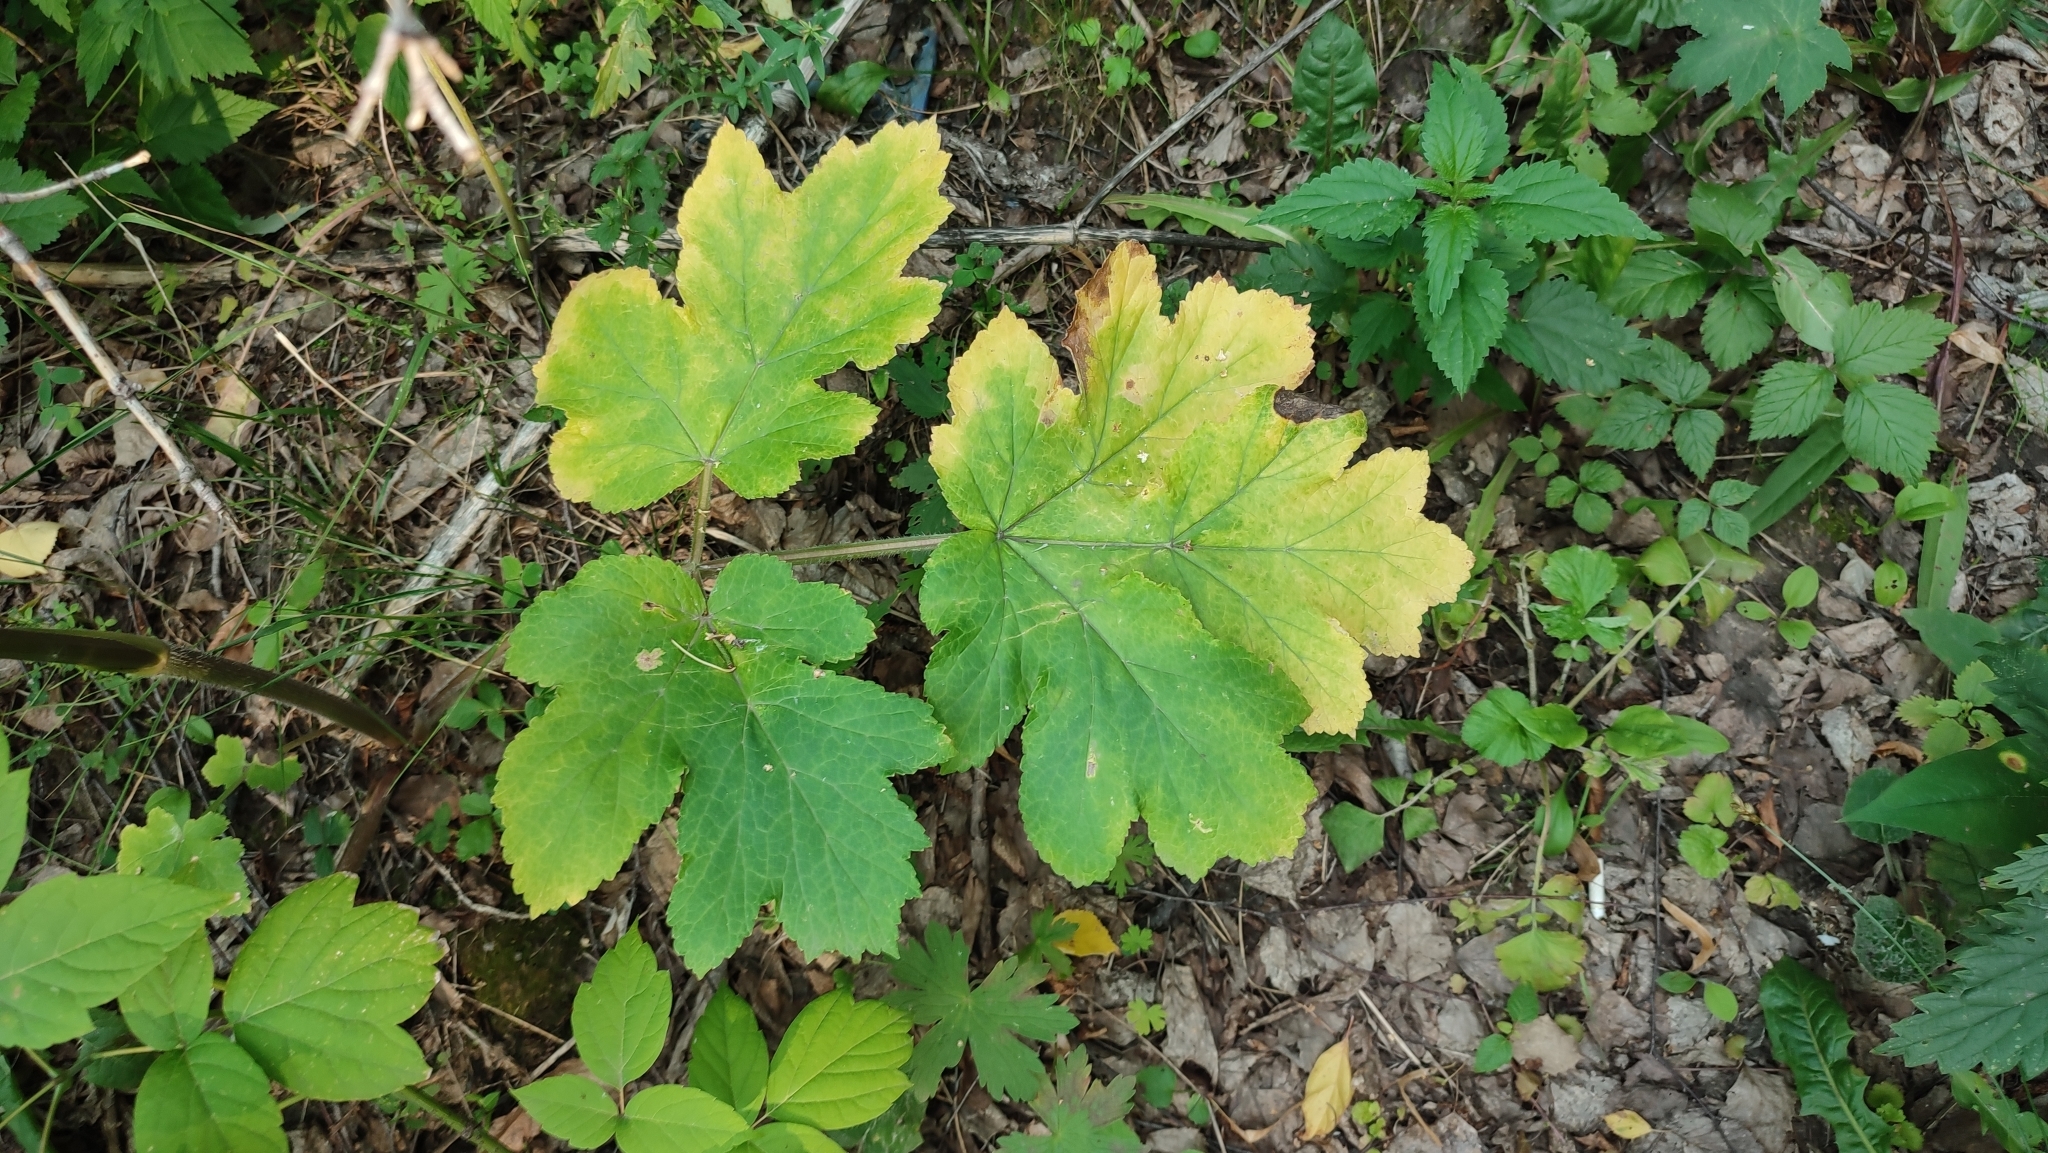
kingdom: Plantae
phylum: Tracheophyta
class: Magnoliopsida
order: Apiales
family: Apiaceae
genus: Heracleum
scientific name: Heracleum sphondylium
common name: Hogweed
